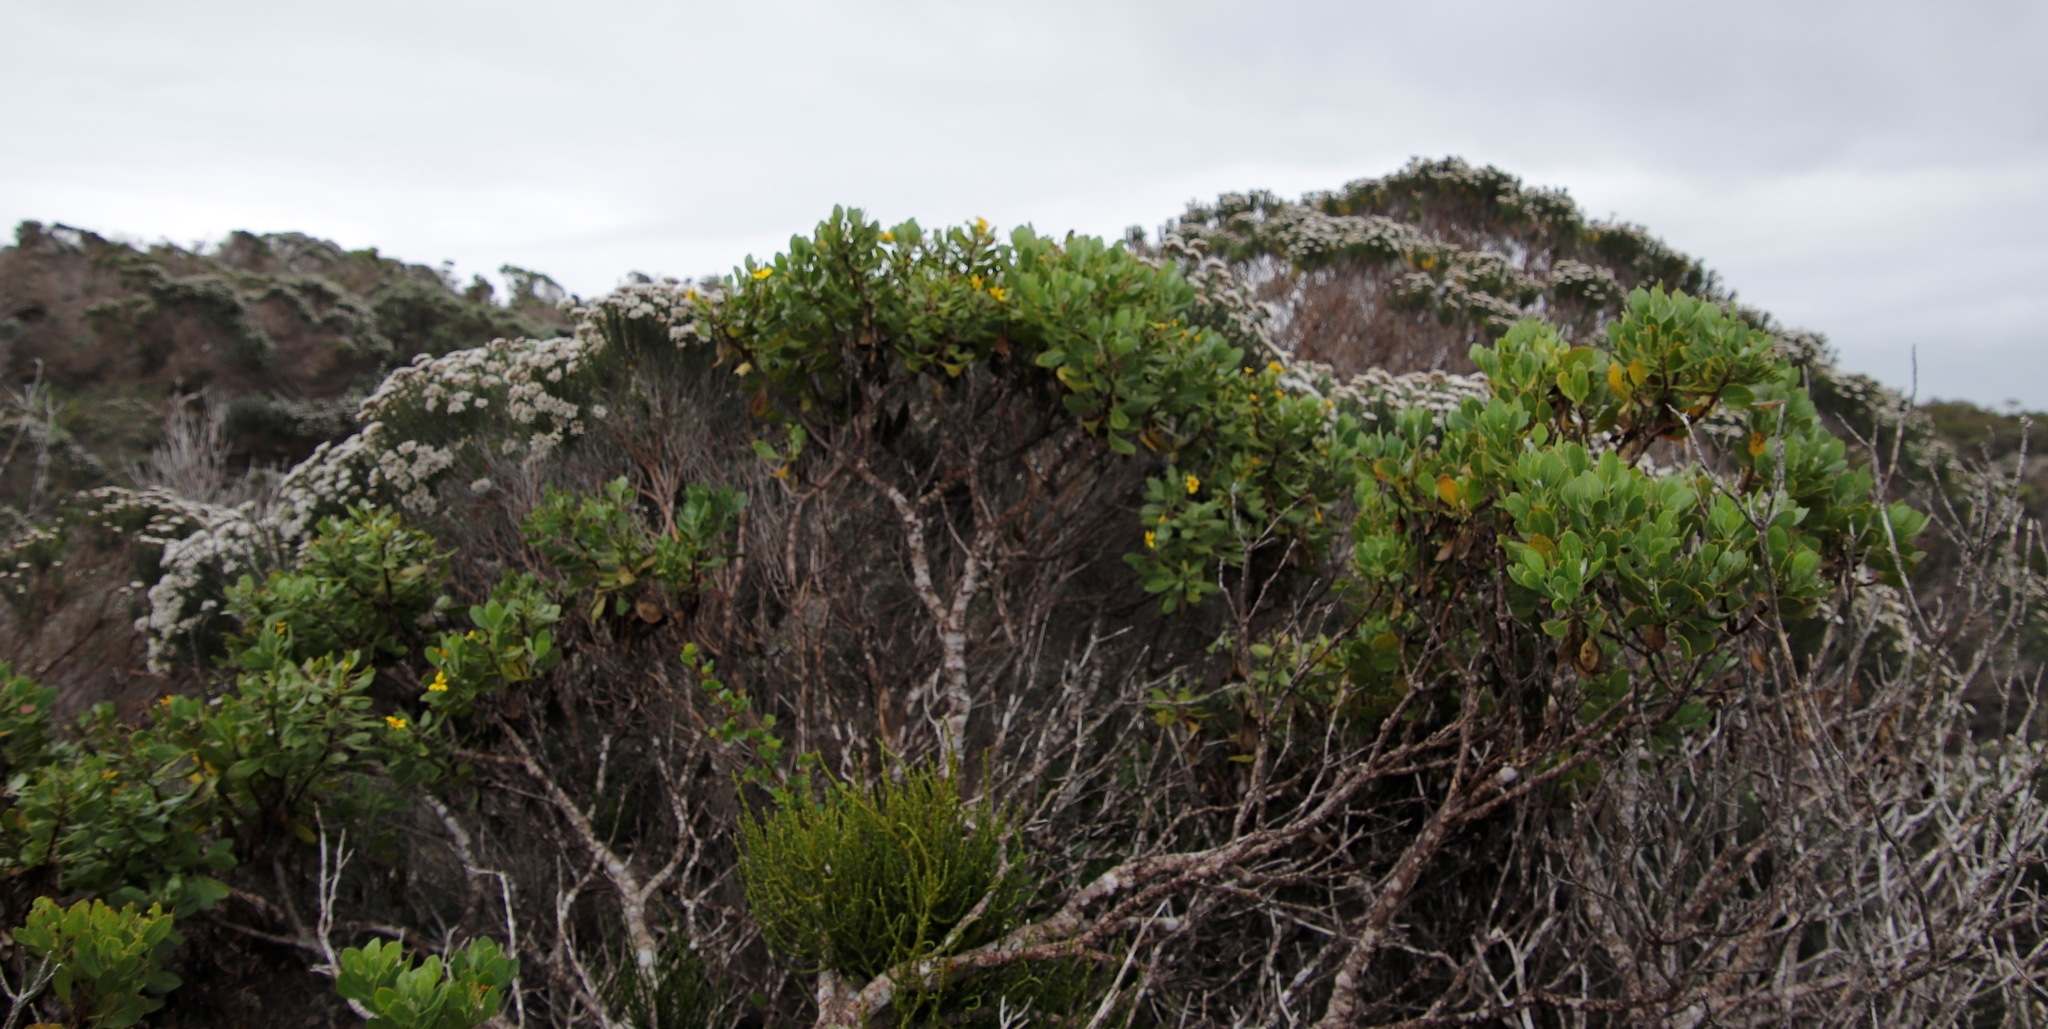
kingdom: Plantae
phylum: Tracheophyta
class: Magnoliopsida
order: Asterales
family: Asteraceae
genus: Osteospermum
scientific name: Osteospermum moniliferum
